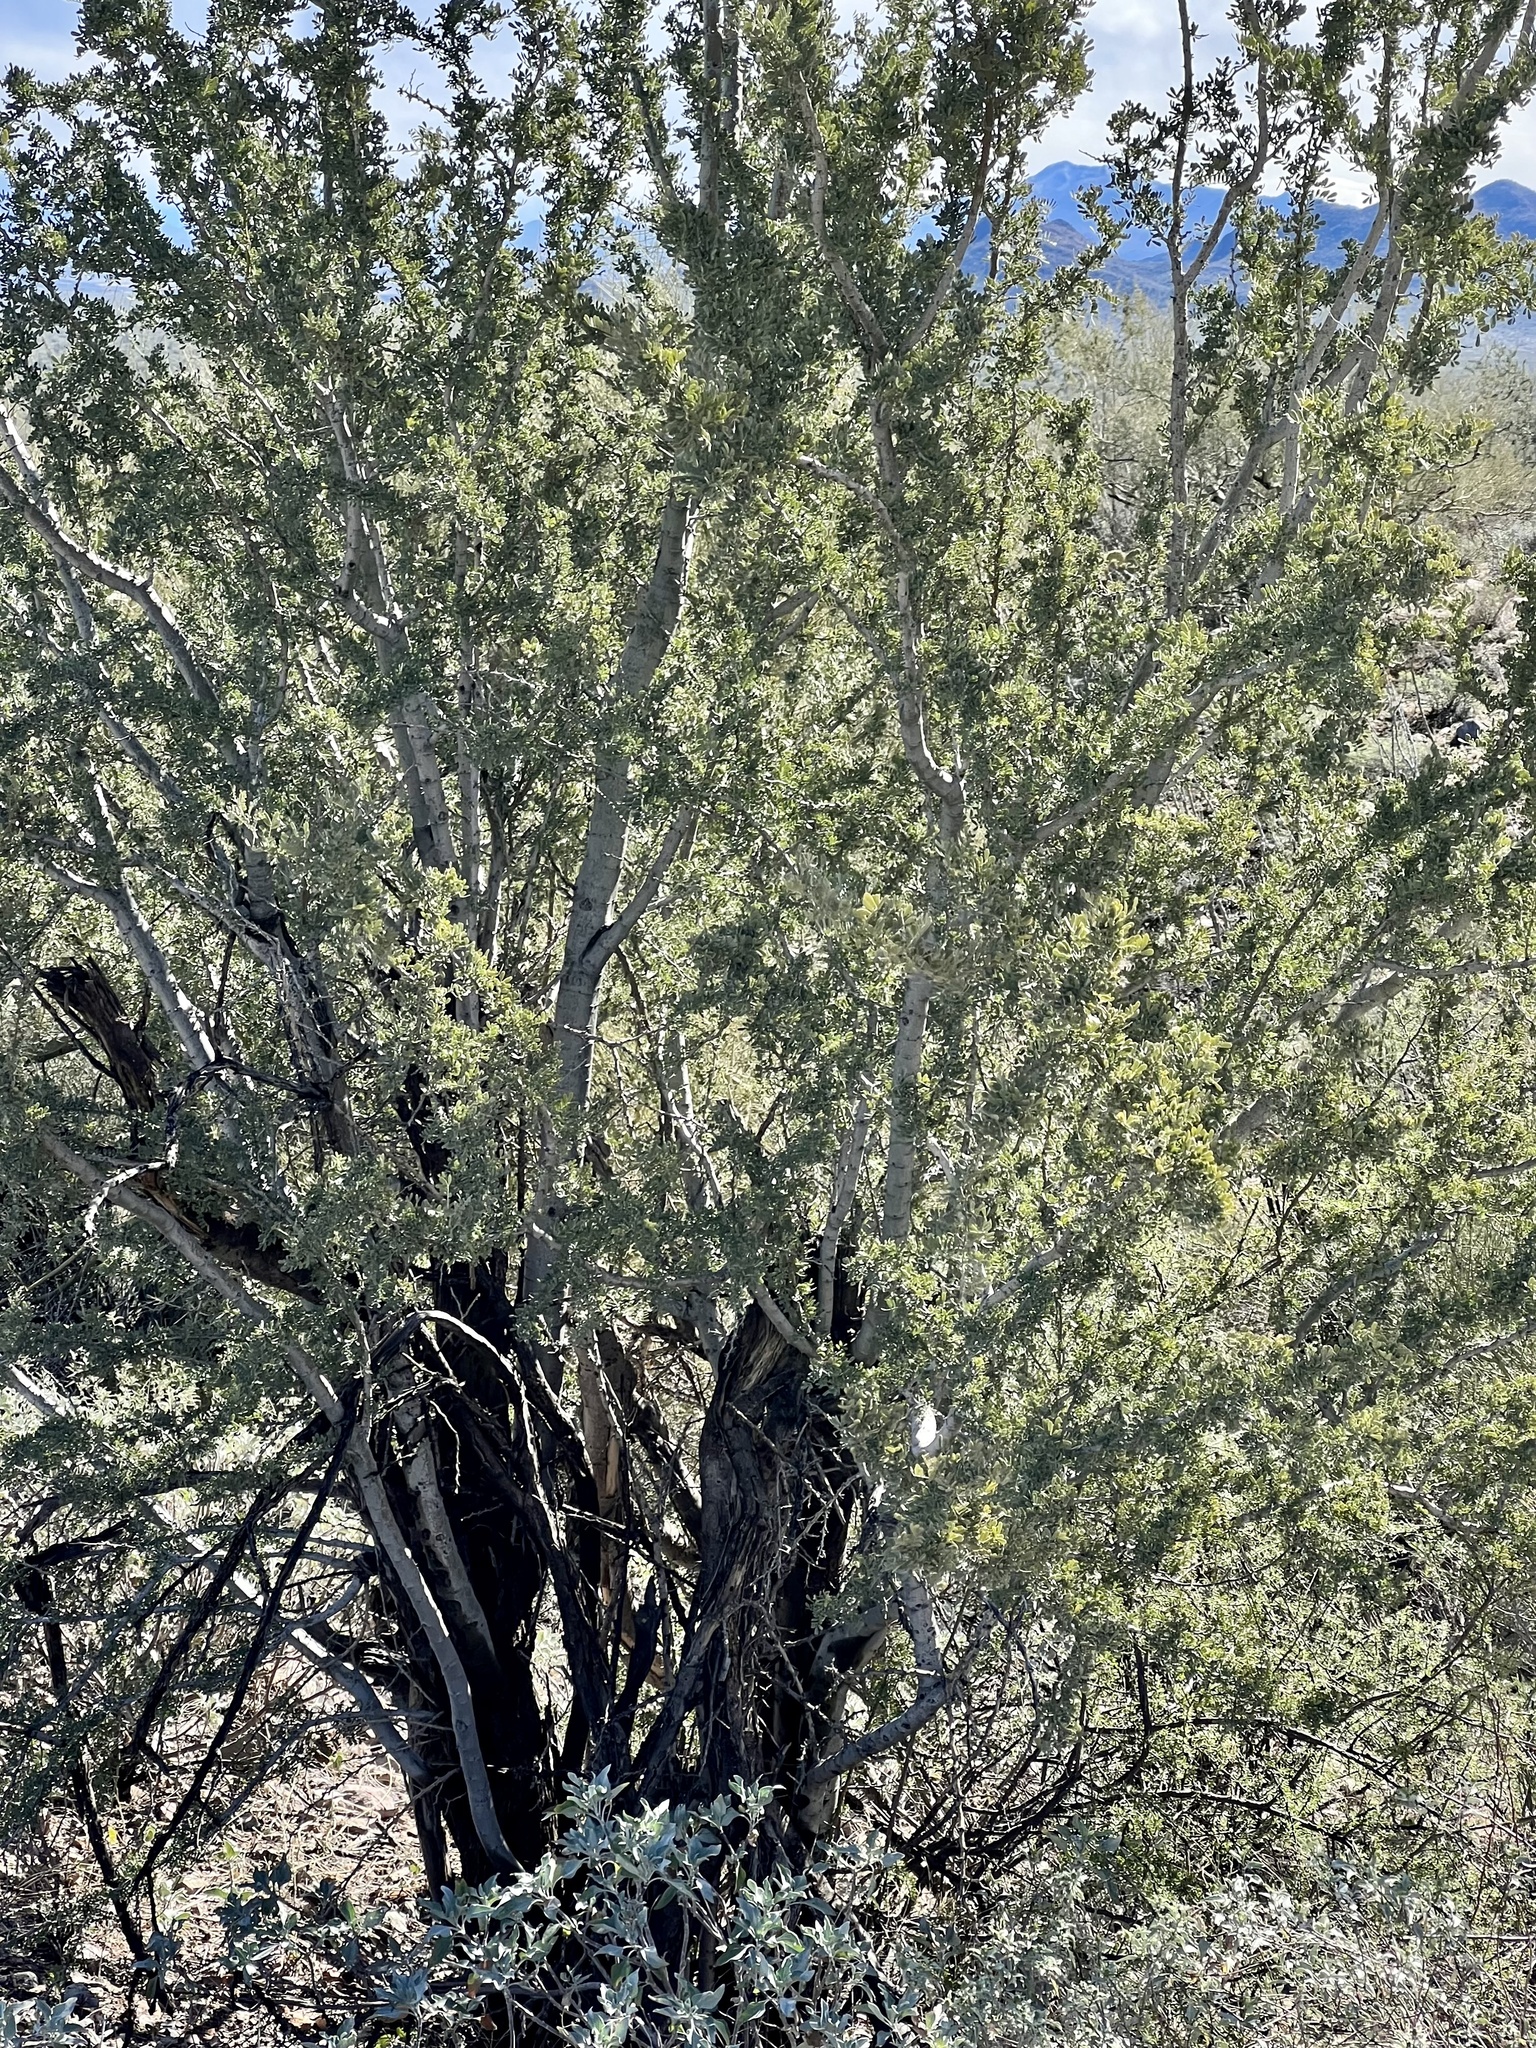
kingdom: Plantae
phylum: Tracheophyta
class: Magnoliopsida
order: Fabales
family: Fabaceae
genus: Olneya
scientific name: Olneya tesota
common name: Desert ironwood
